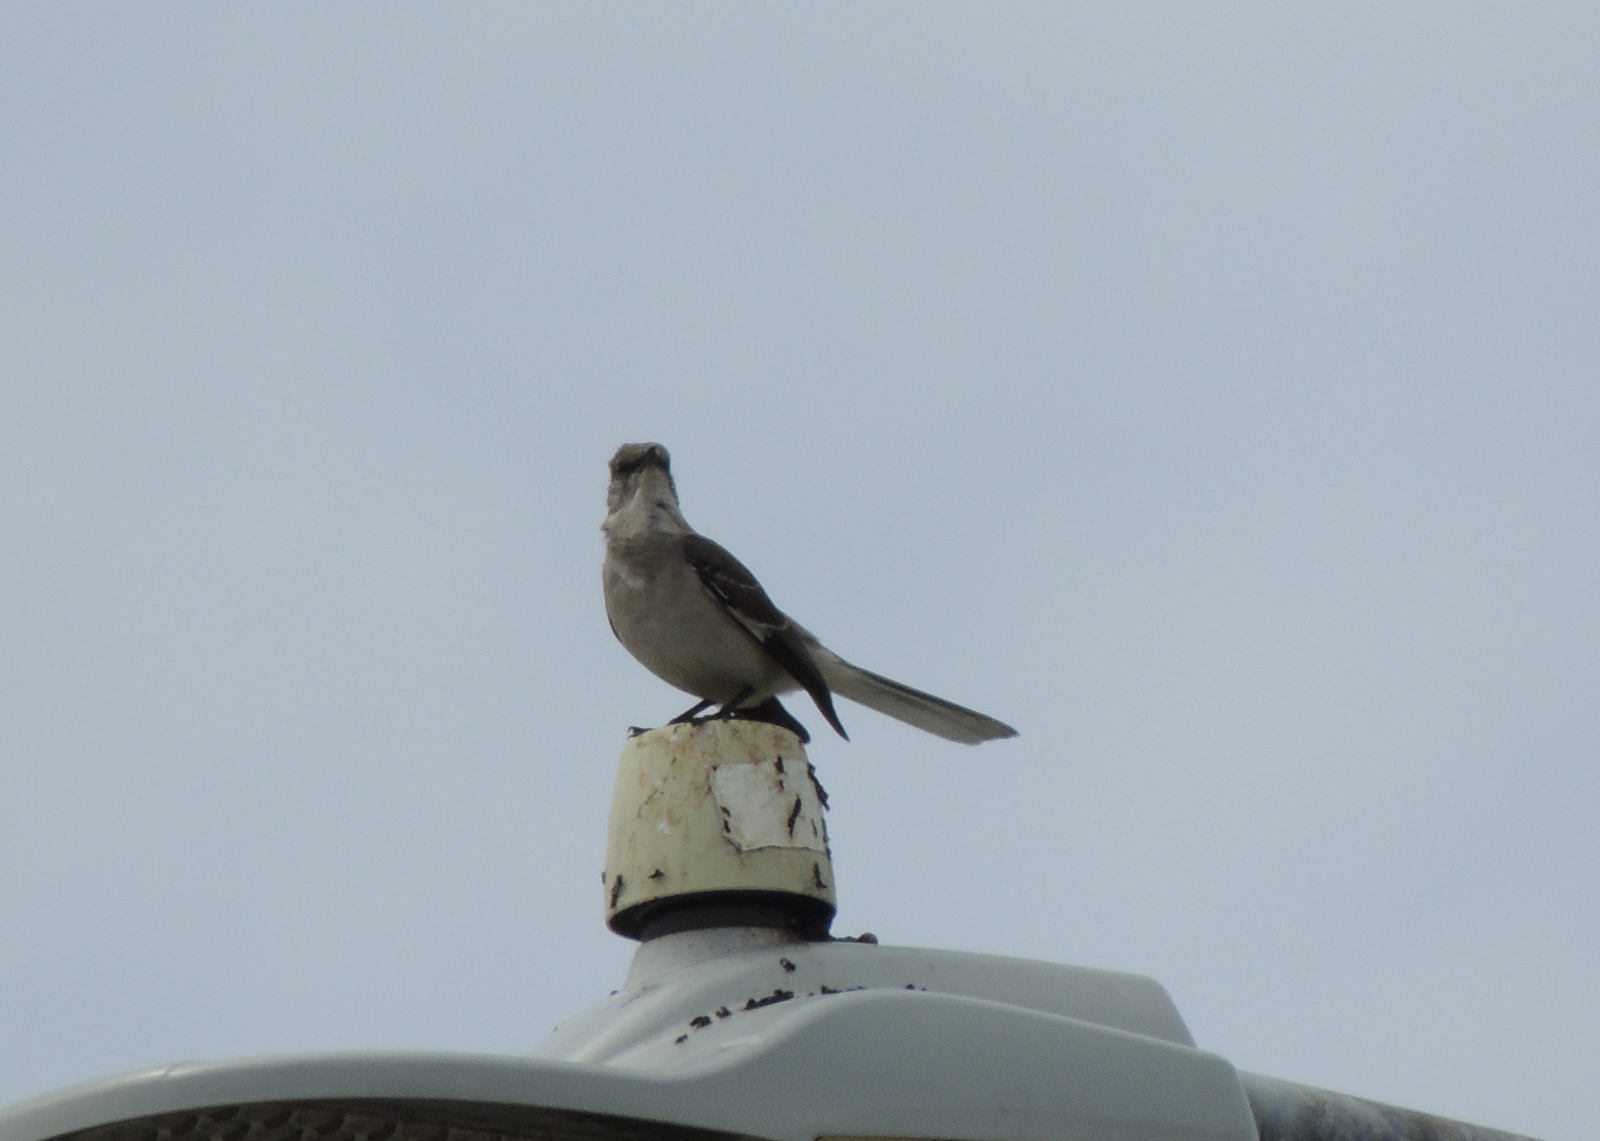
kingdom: Animalia
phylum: Chordata
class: Aves
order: Passeriformes
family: Mimidae
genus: Mimus
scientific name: Mimus polyglottos
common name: Northern mockingbird
